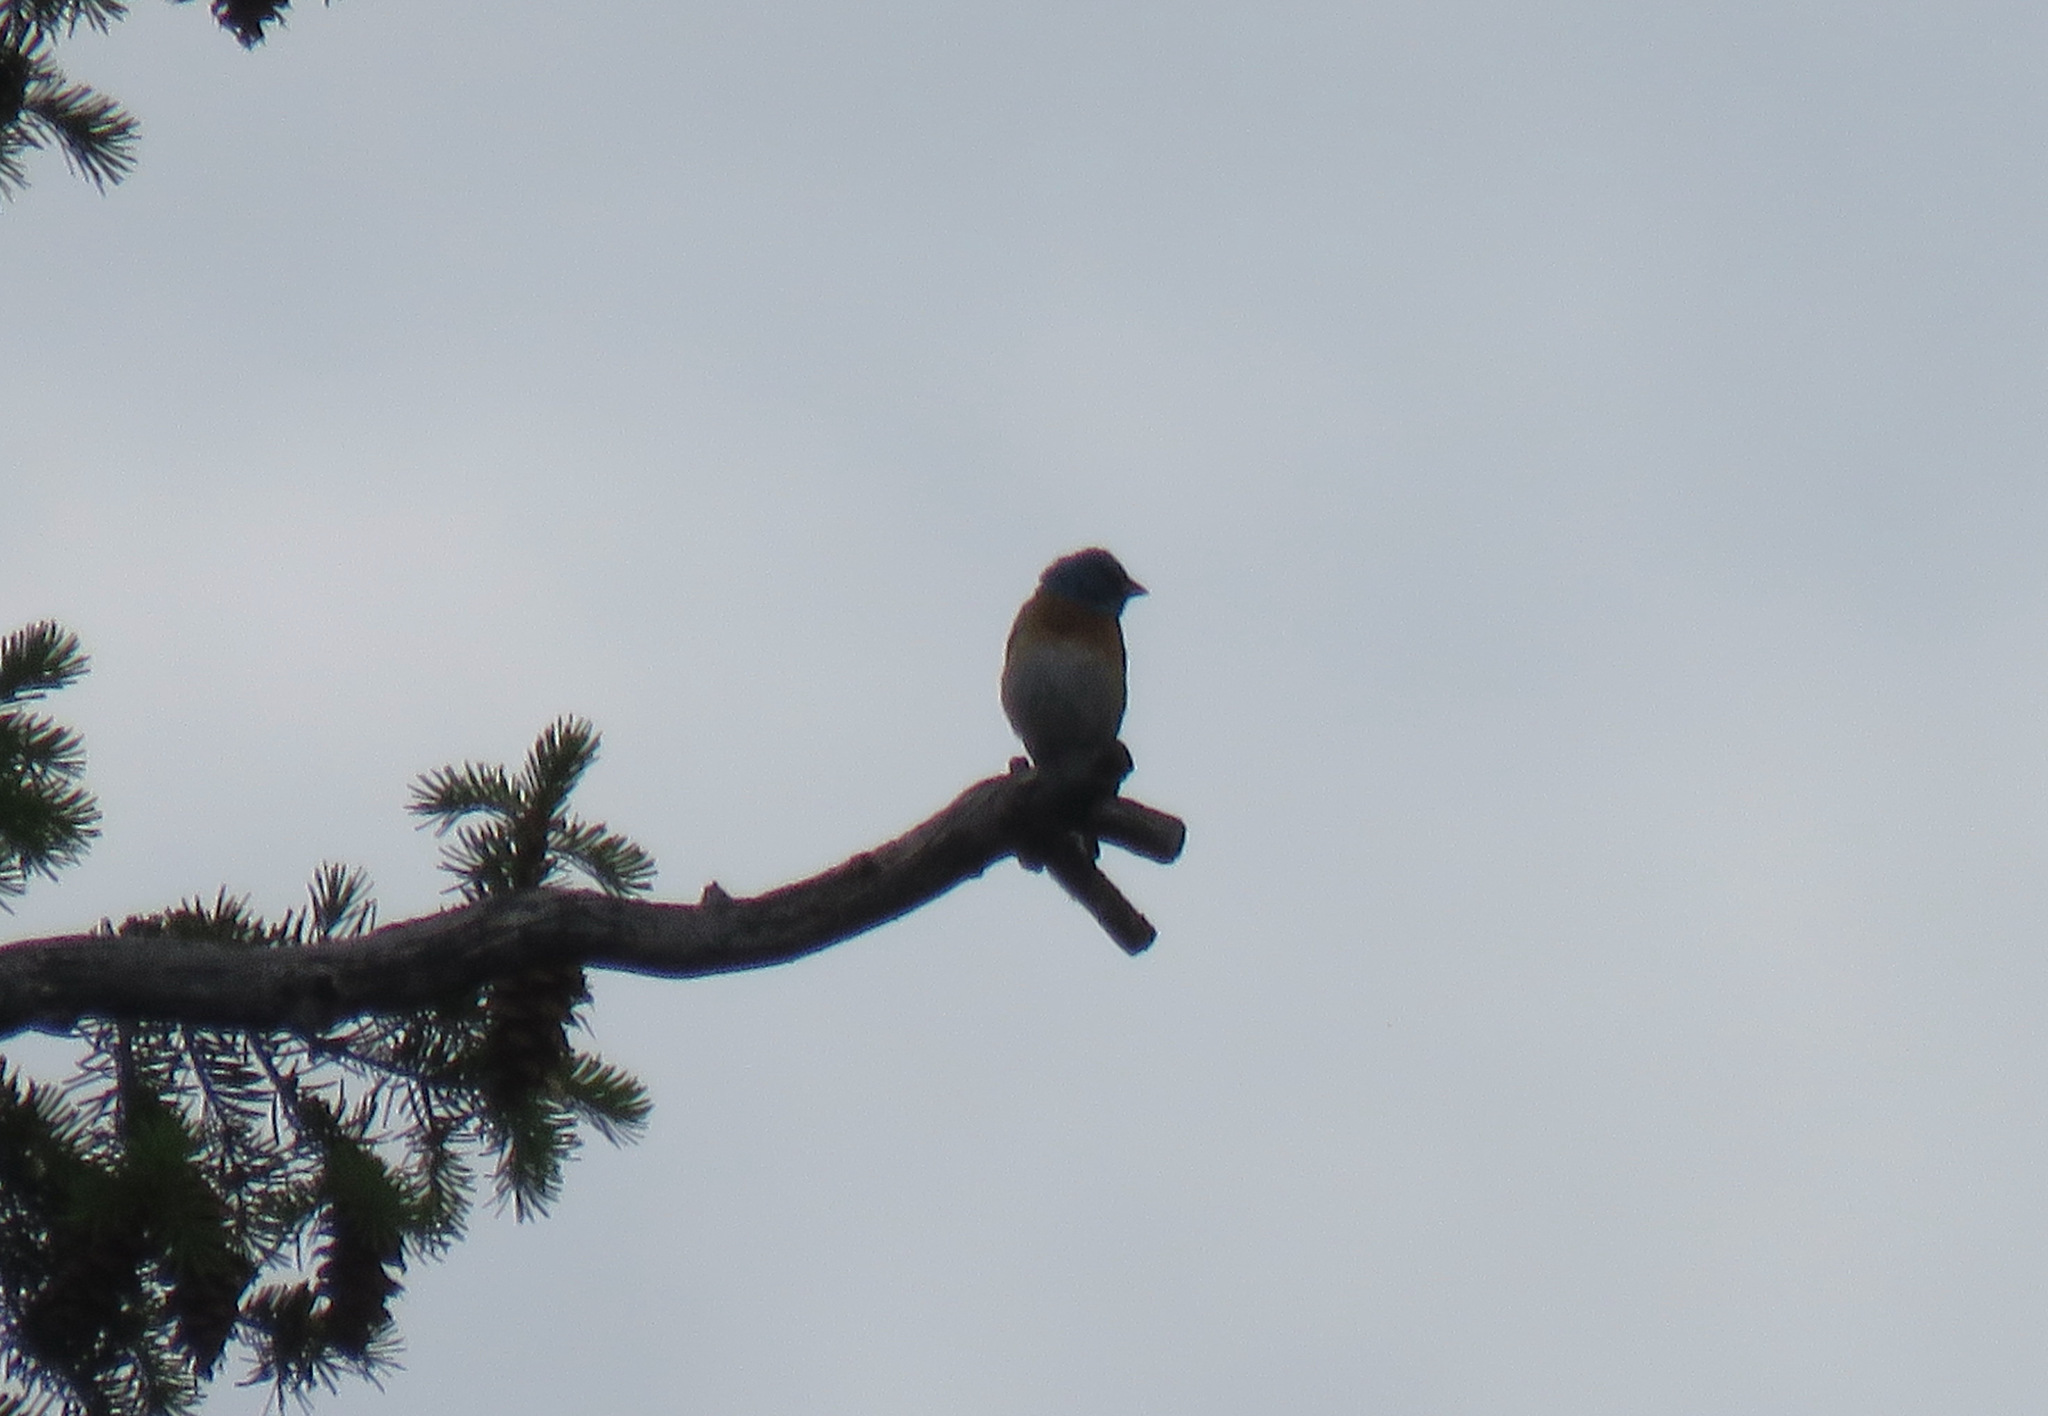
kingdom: Animalia
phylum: Chordata
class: Aves
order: Passeriformes
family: Cardinalidae
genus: Passerina
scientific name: Passerina amoena
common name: Lazuli bunting
